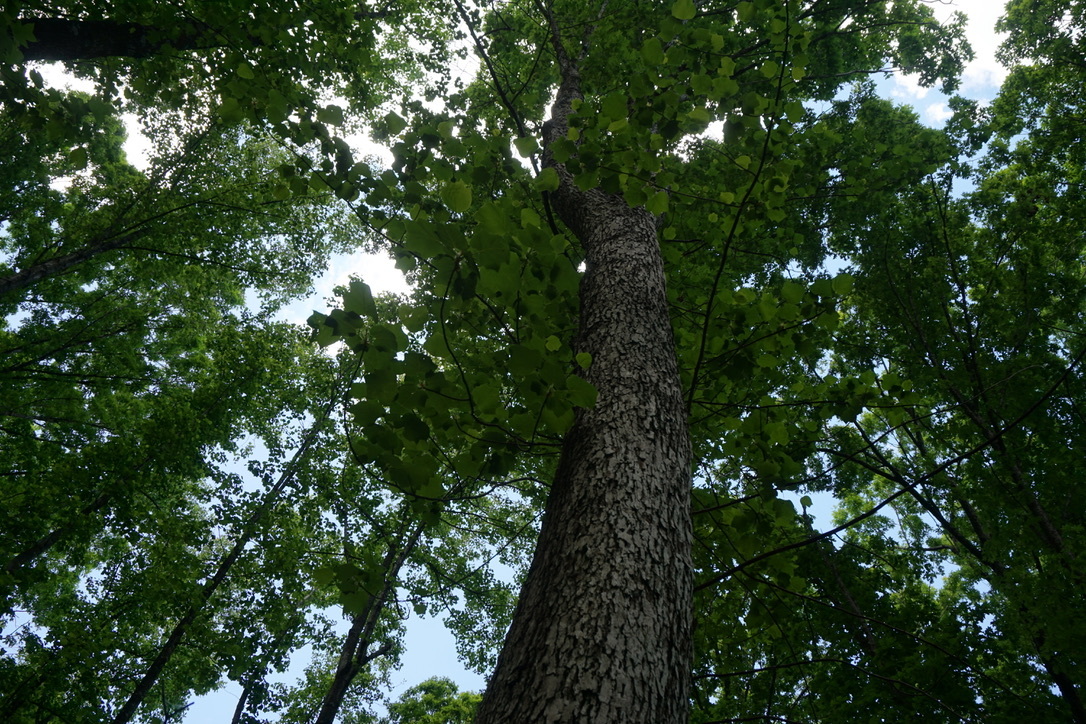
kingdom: Plantae
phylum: Tracheophyta
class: Magnoliopsida
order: Magnoliales
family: Magnoliaceae
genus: Liriodendron
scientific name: Liriodendron tulipifera
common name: Tulip tree
